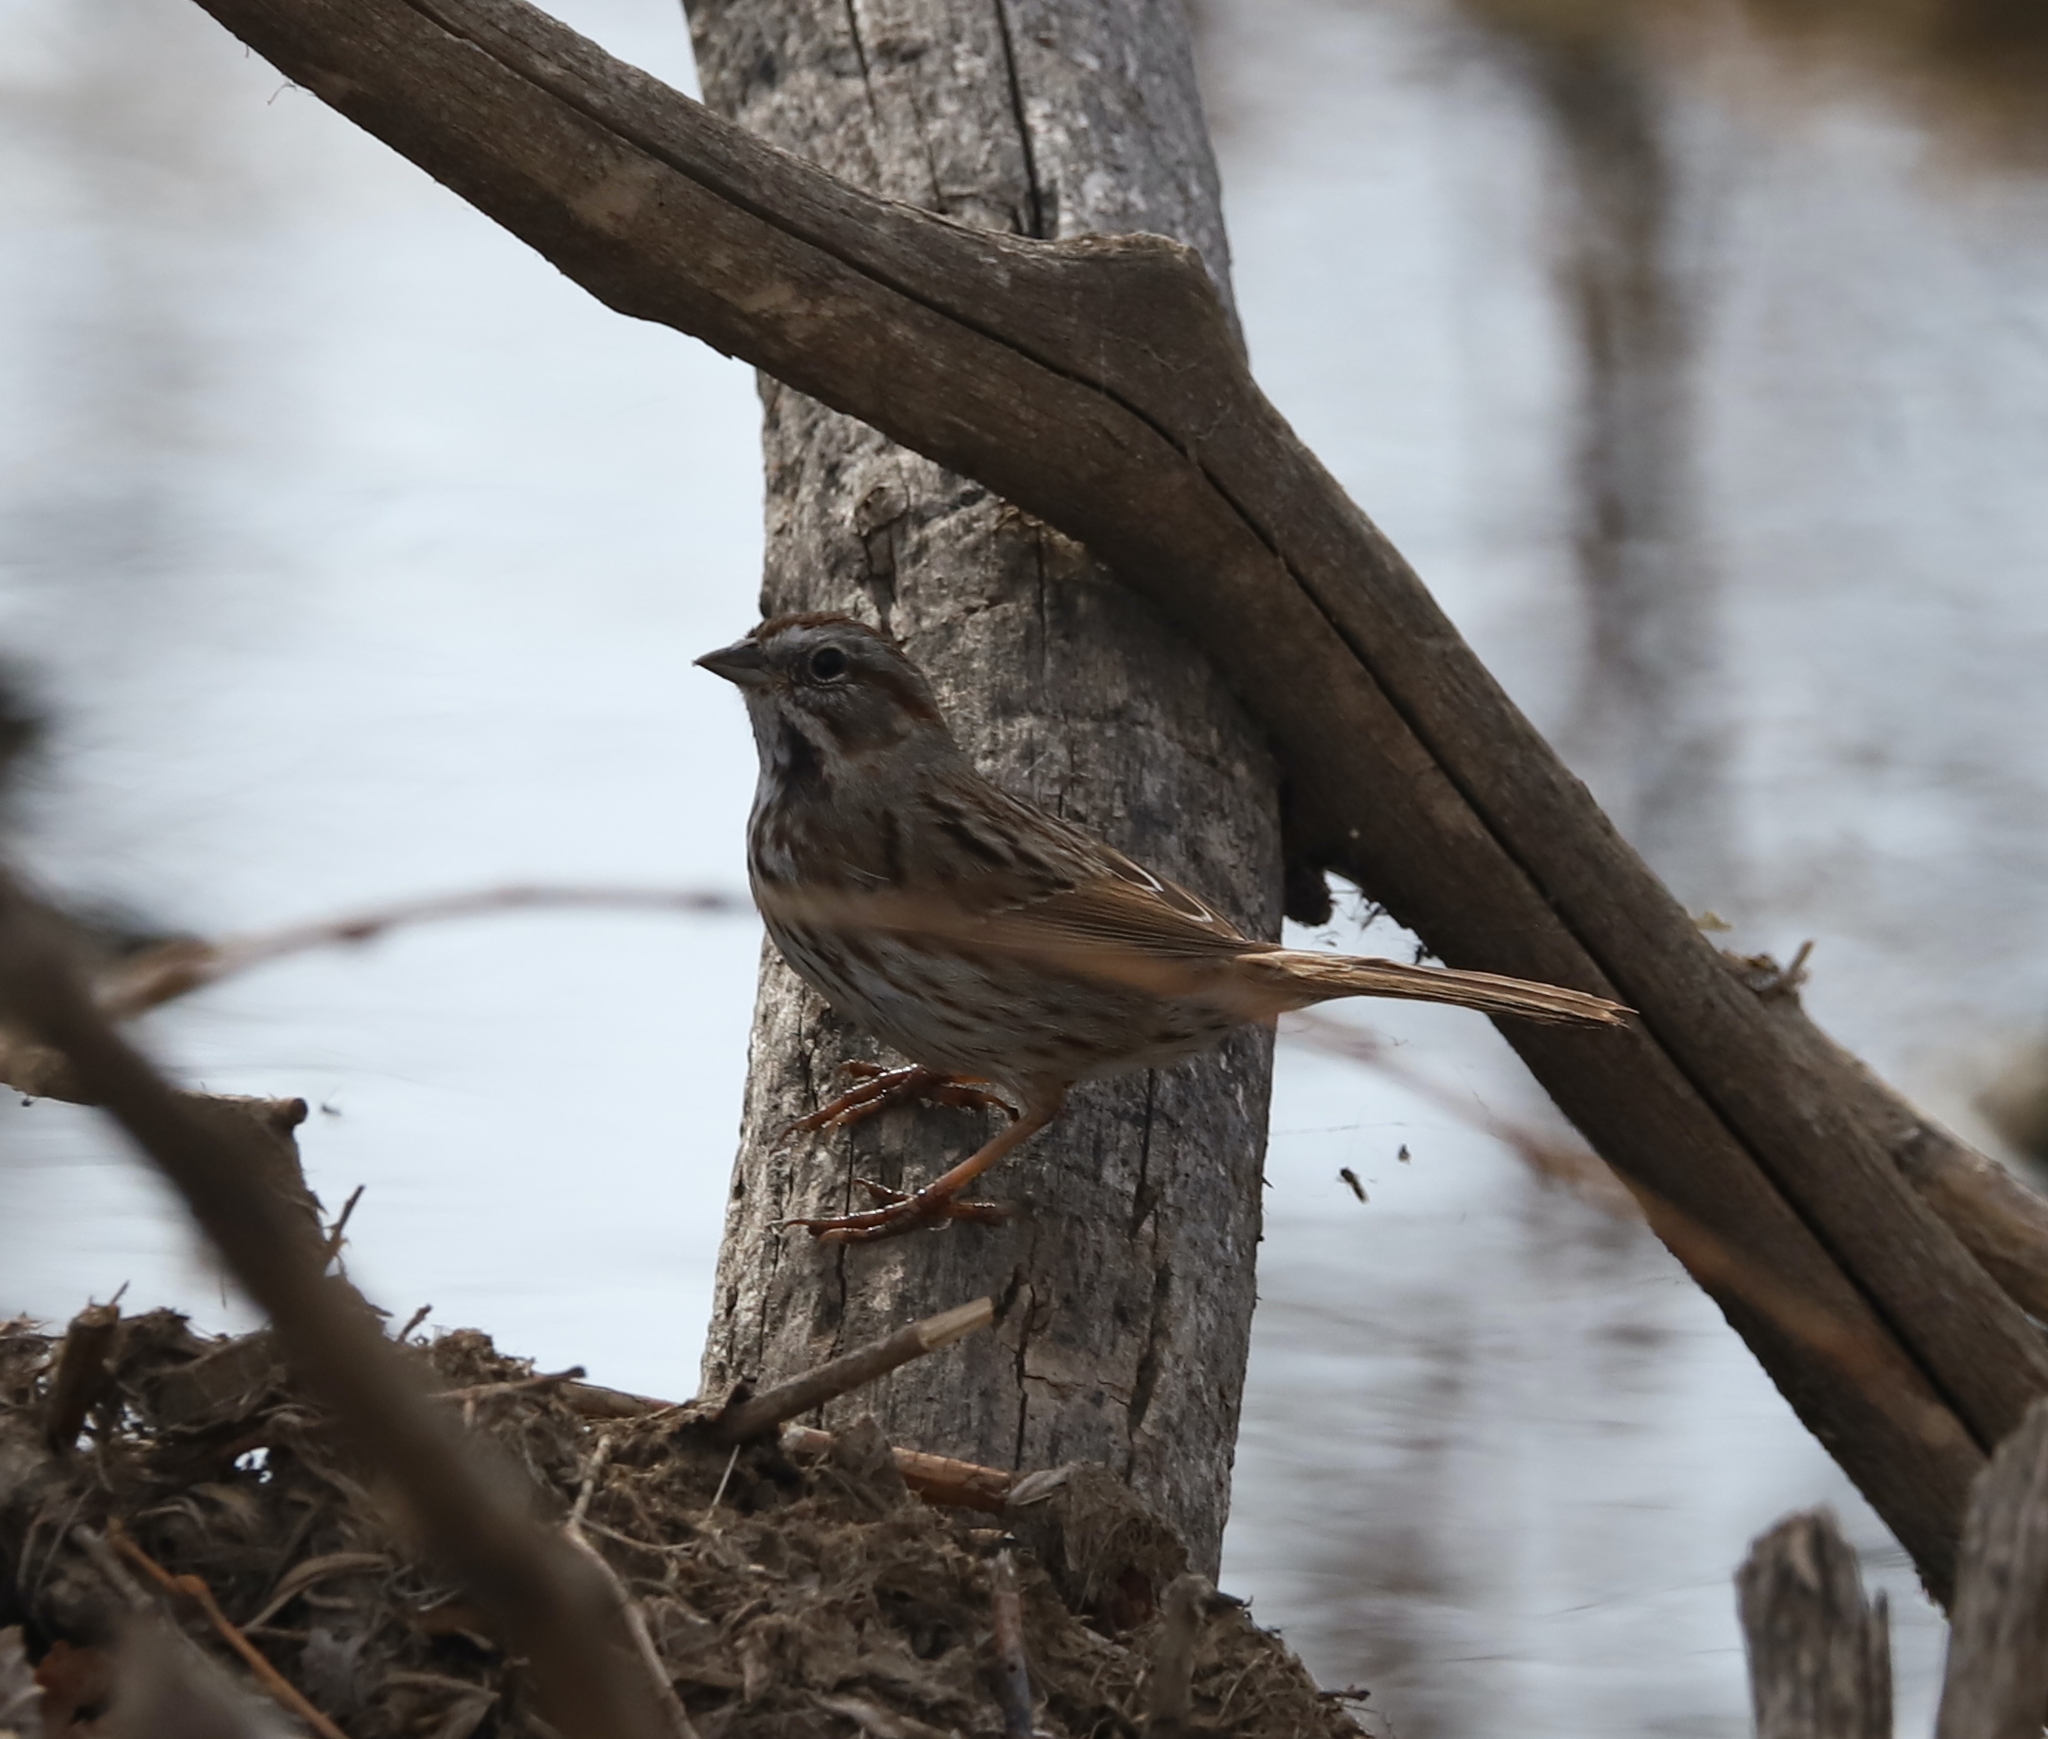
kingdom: Animalia
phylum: Chordata
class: Aves
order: Passeriformes
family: Passerellidae
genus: Melospiza
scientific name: Melospiza melodia
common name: Song sparrow
